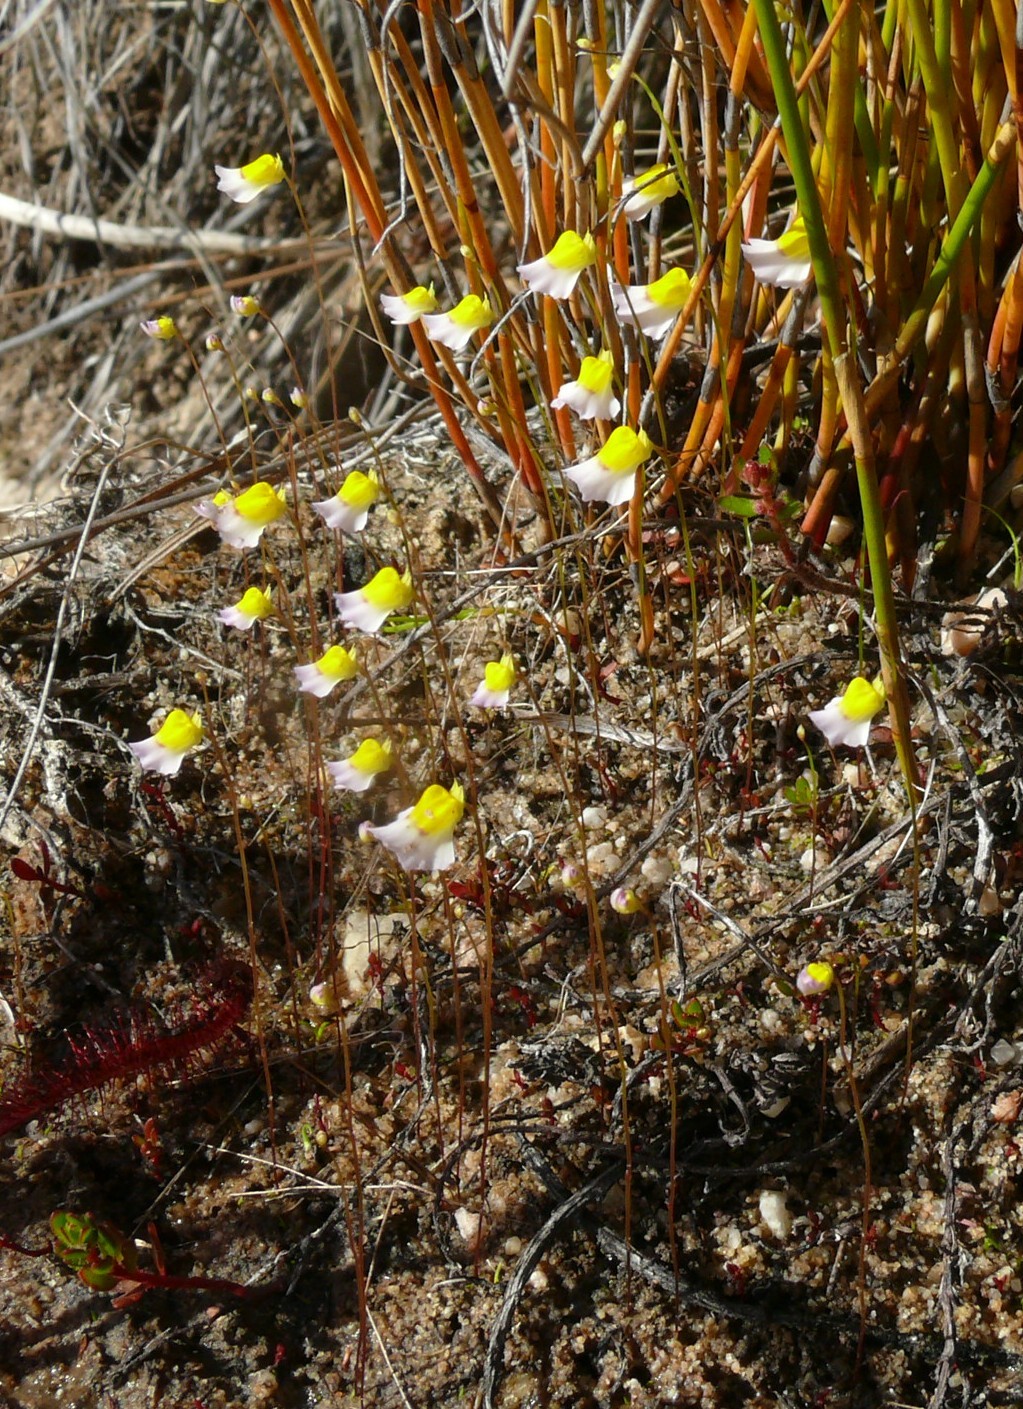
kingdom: Plantae
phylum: Tracheophyta
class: Magnoliopsida
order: Lamiales
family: Lentibulariaceae
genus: Utricularia
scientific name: Utricularia bisquamata
